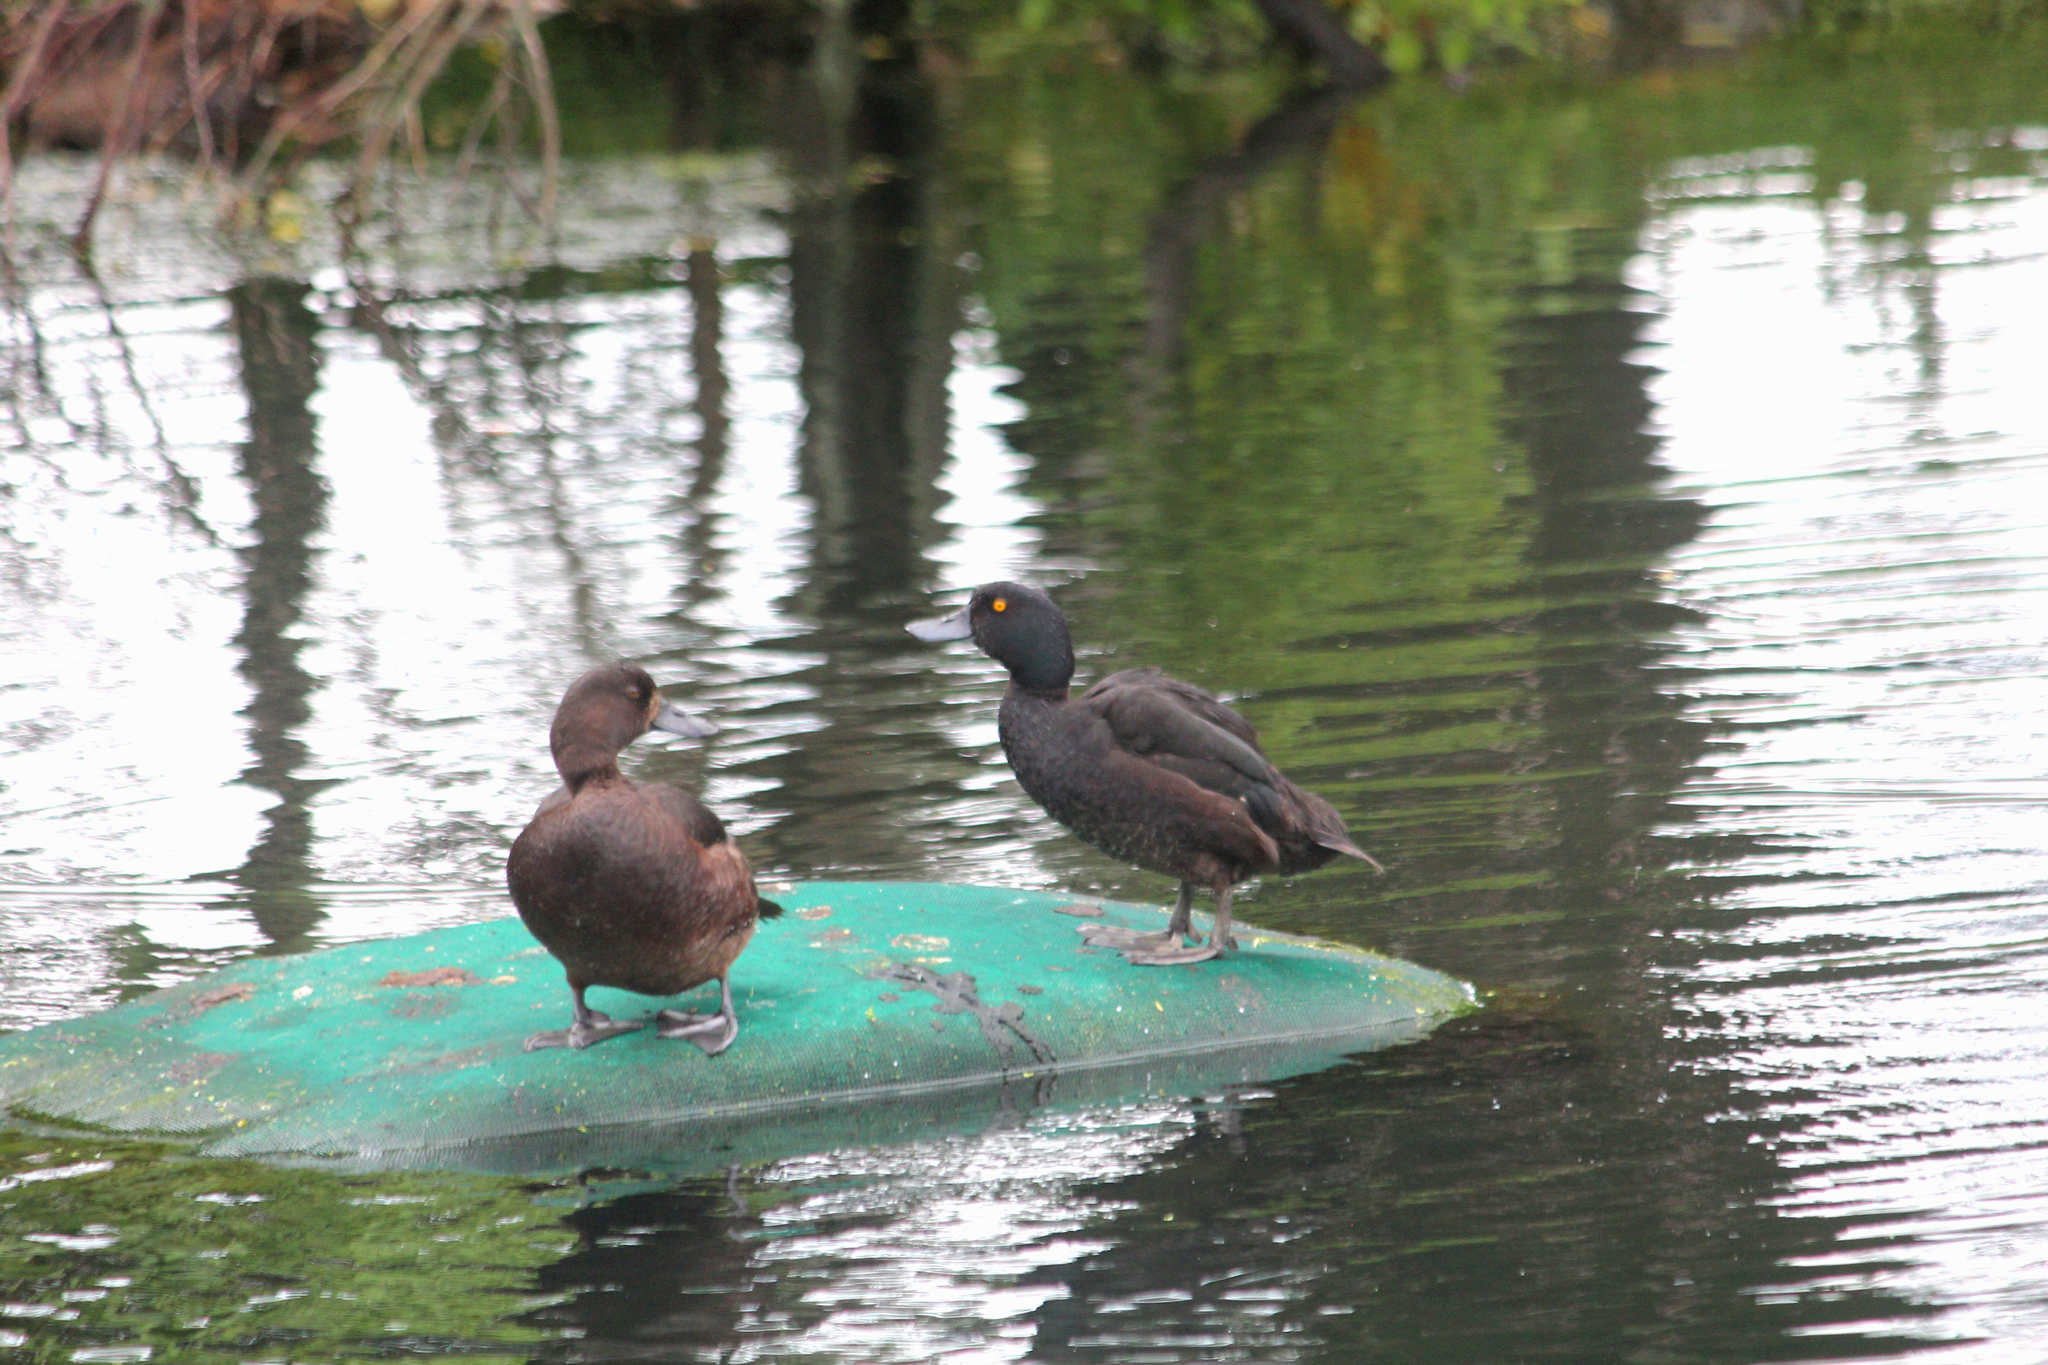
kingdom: Animalia
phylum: Chordata
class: Aves
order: Anseriformes
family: Anatidae
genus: Aythya
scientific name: Aythya novaeseelandiae
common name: New zealand scaup
